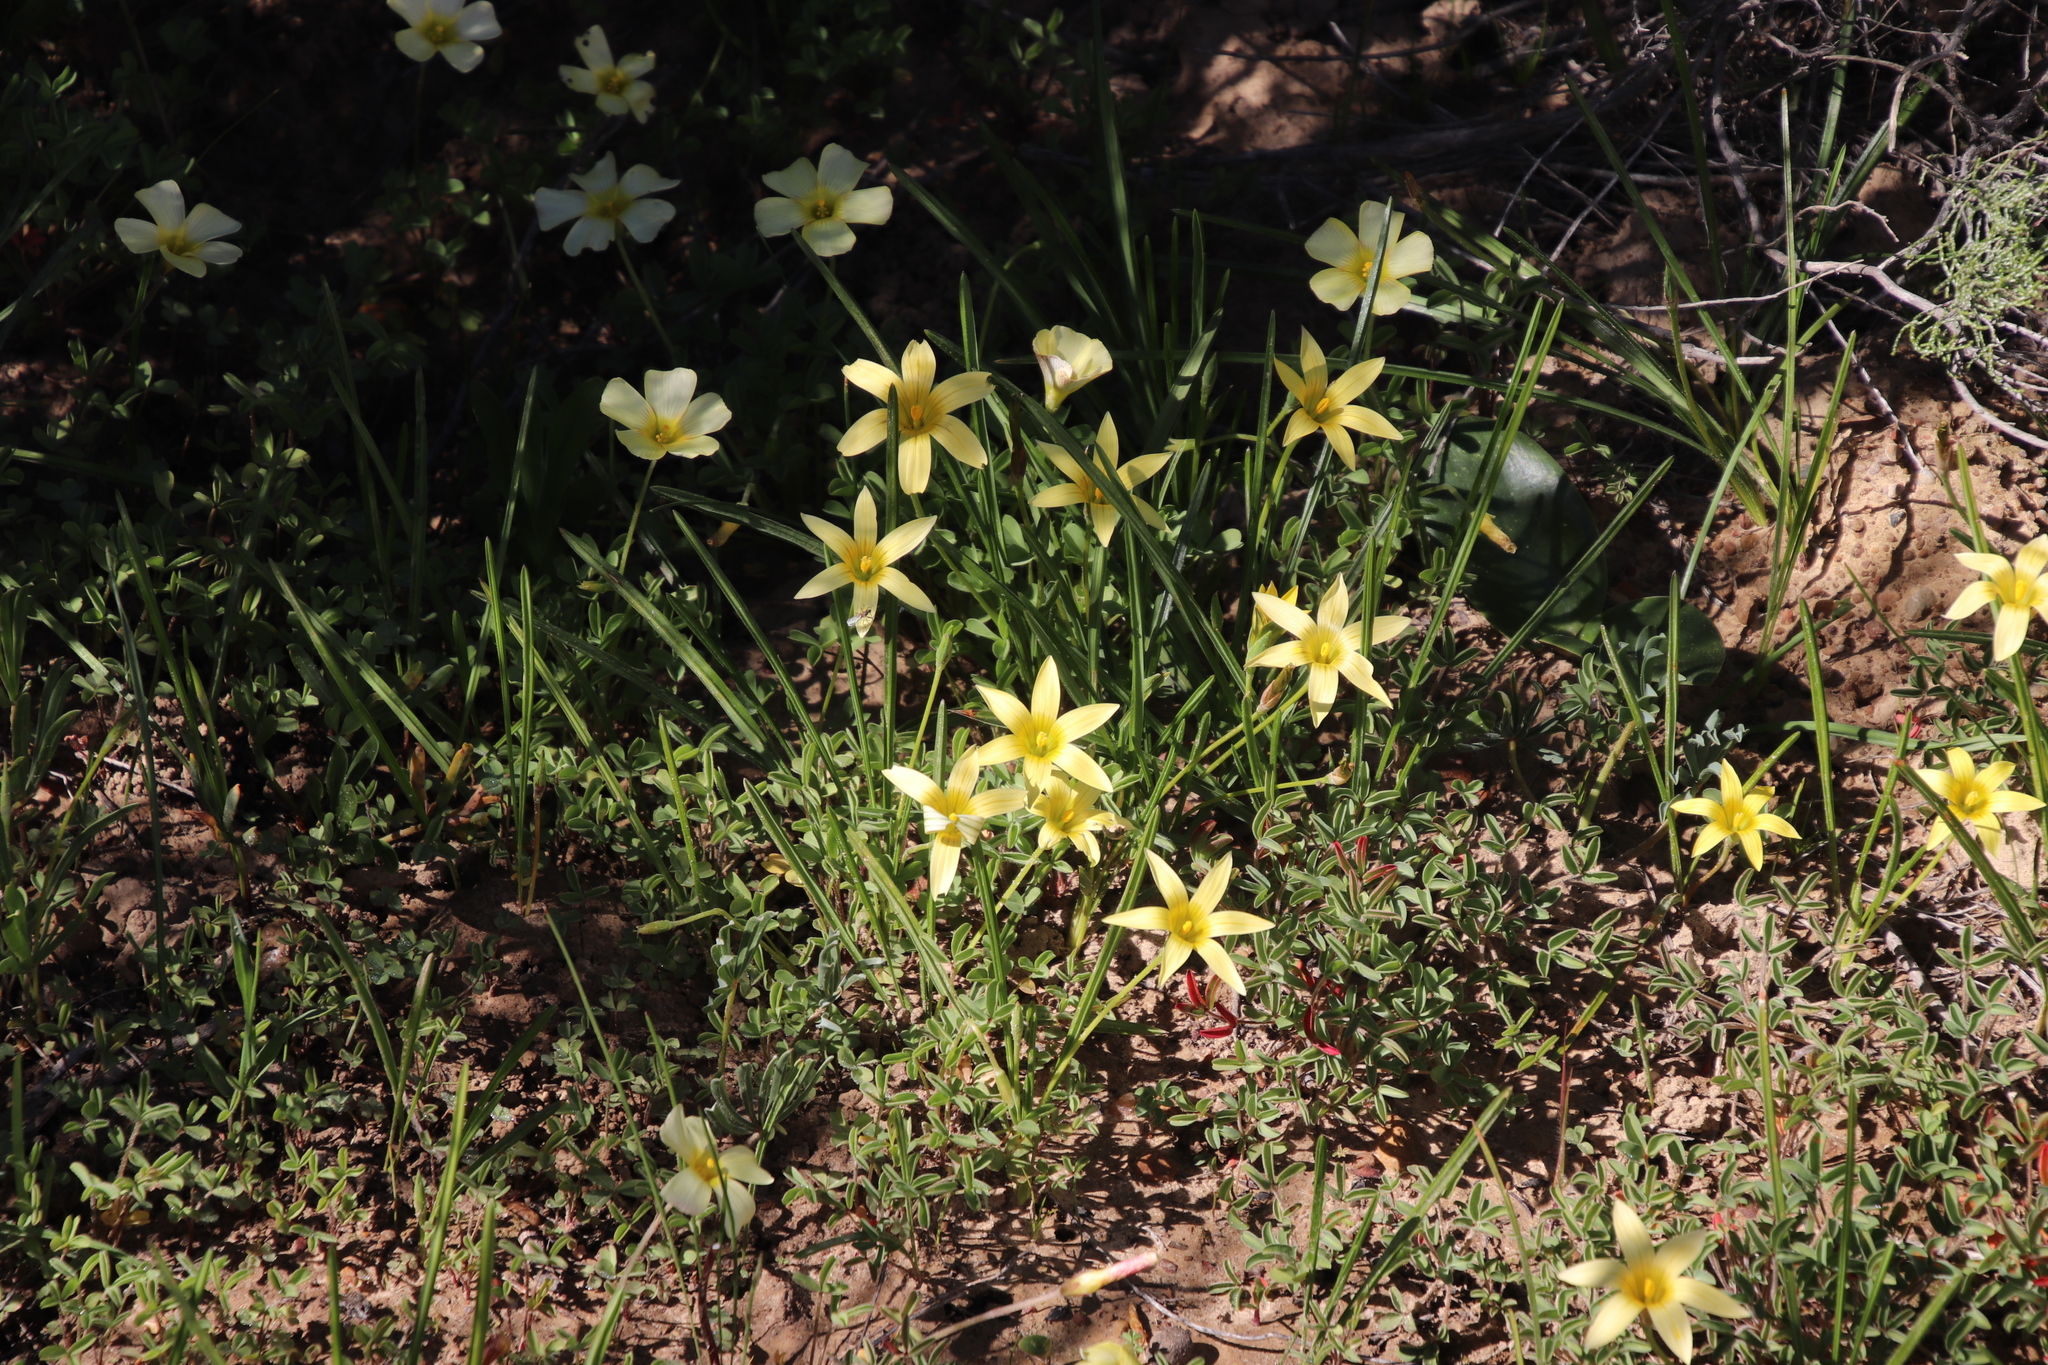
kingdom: Plantae
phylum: Tracheophyta
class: Liliopsida
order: Asparagales
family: Iridaceae
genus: Romulea
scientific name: Romulea hirta
